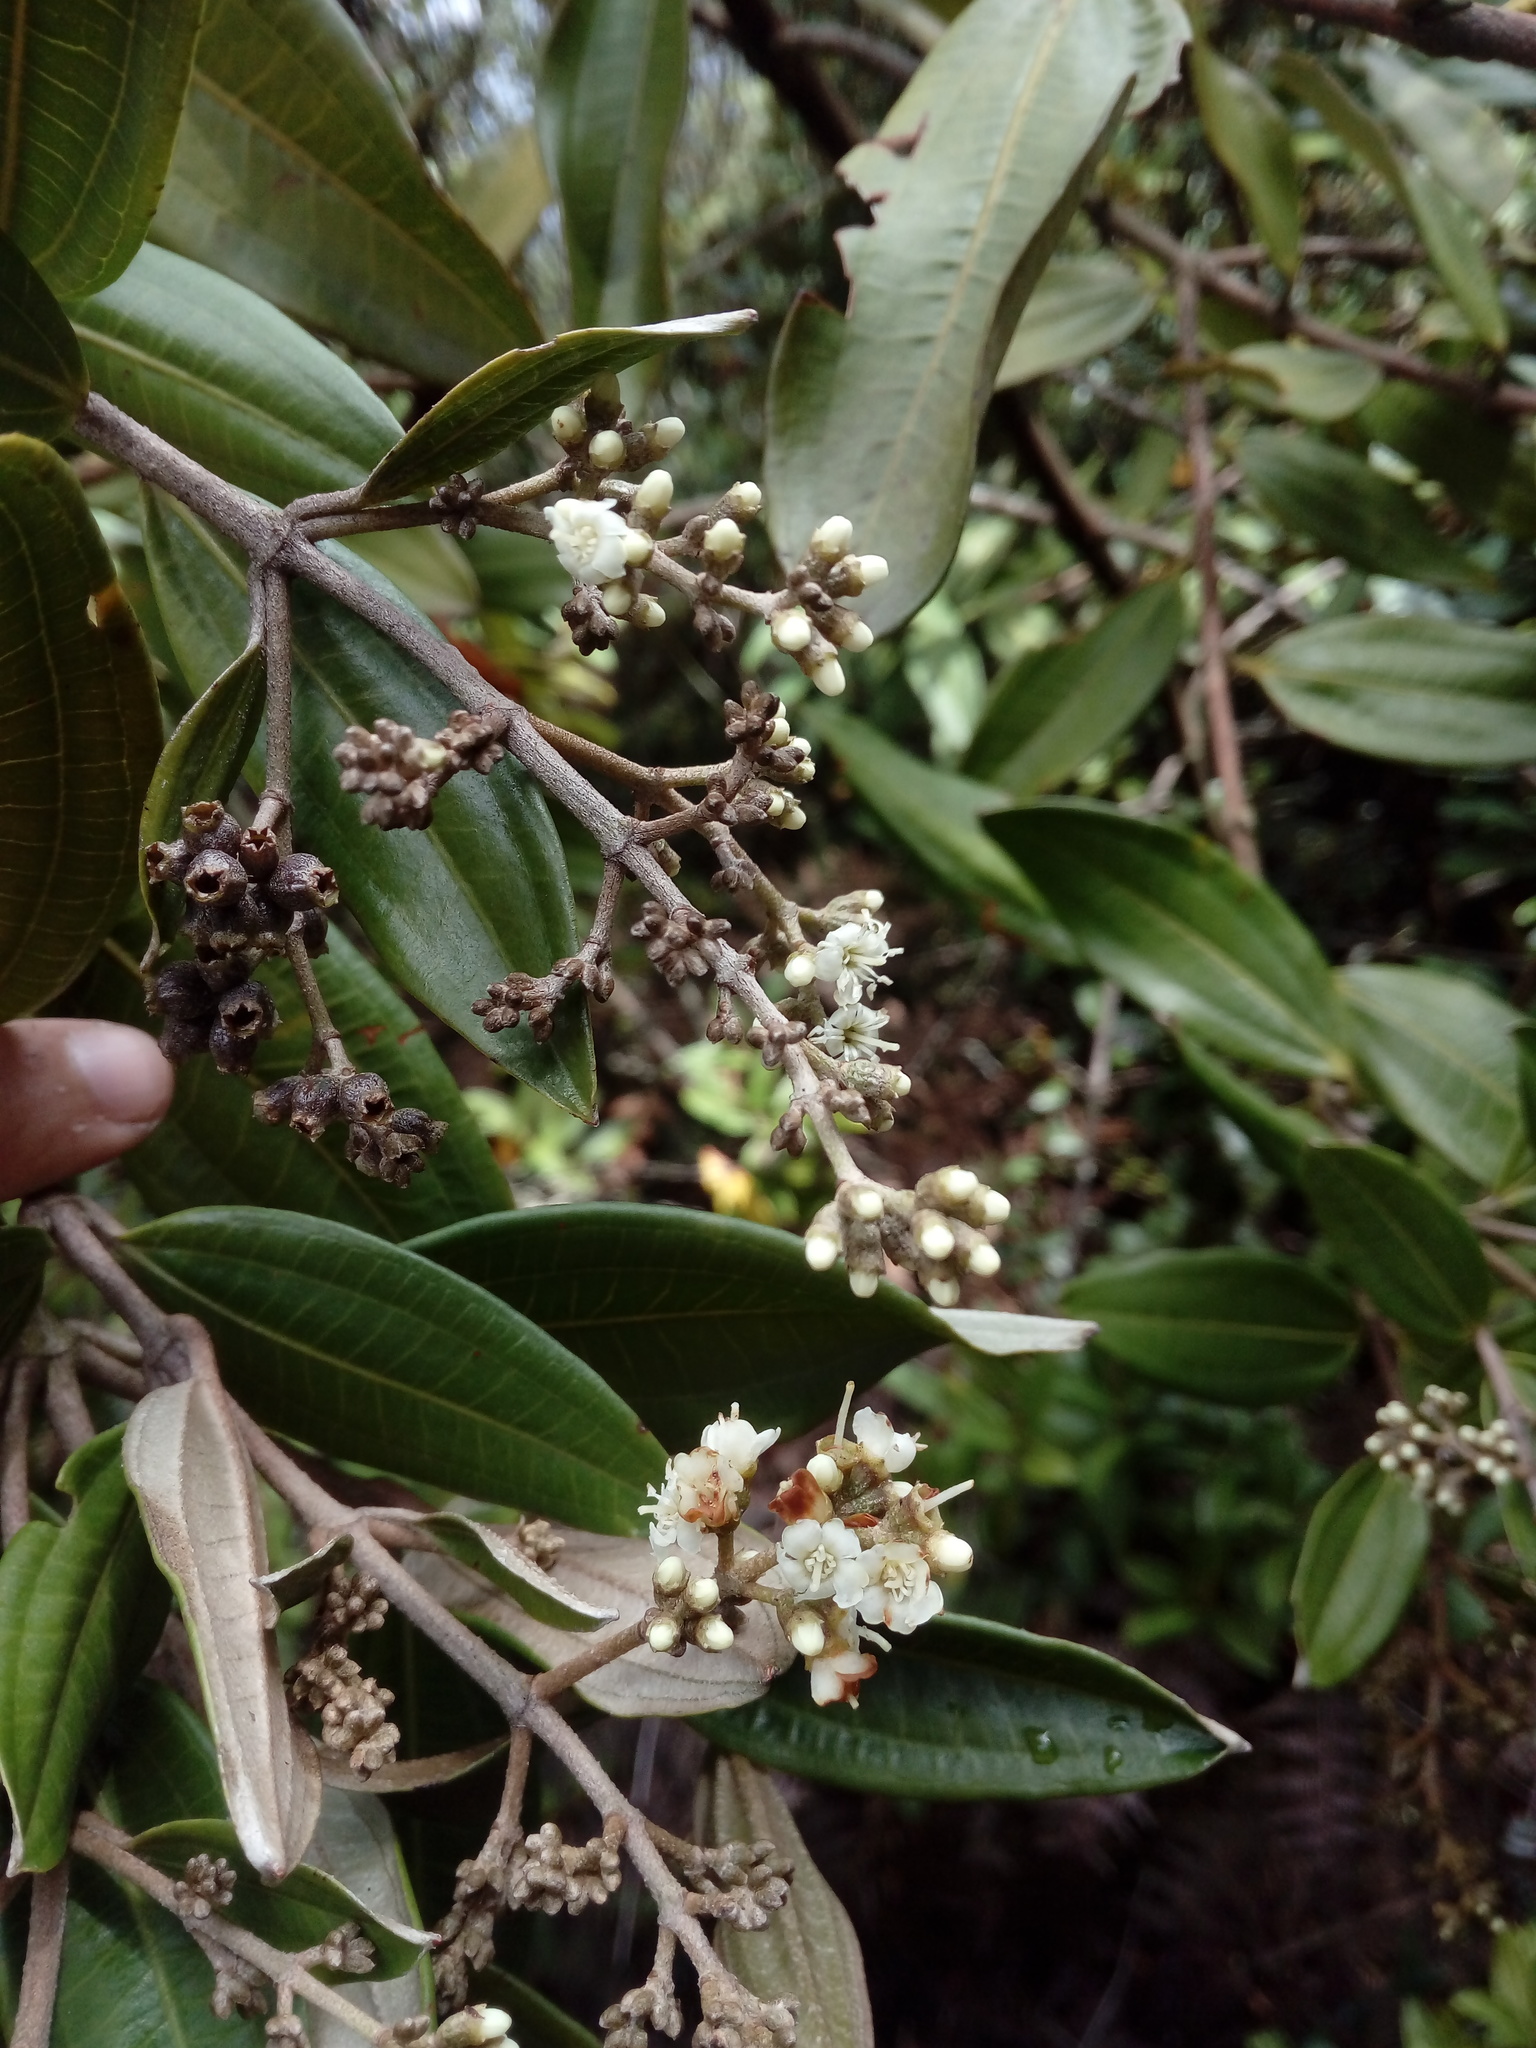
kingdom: Plantae
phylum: Tracheophyta
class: Magnoliopsida
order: Myrtales
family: Melastomataceae
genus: Miconia
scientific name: Miconia squamulosa
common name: Squamulose maya
